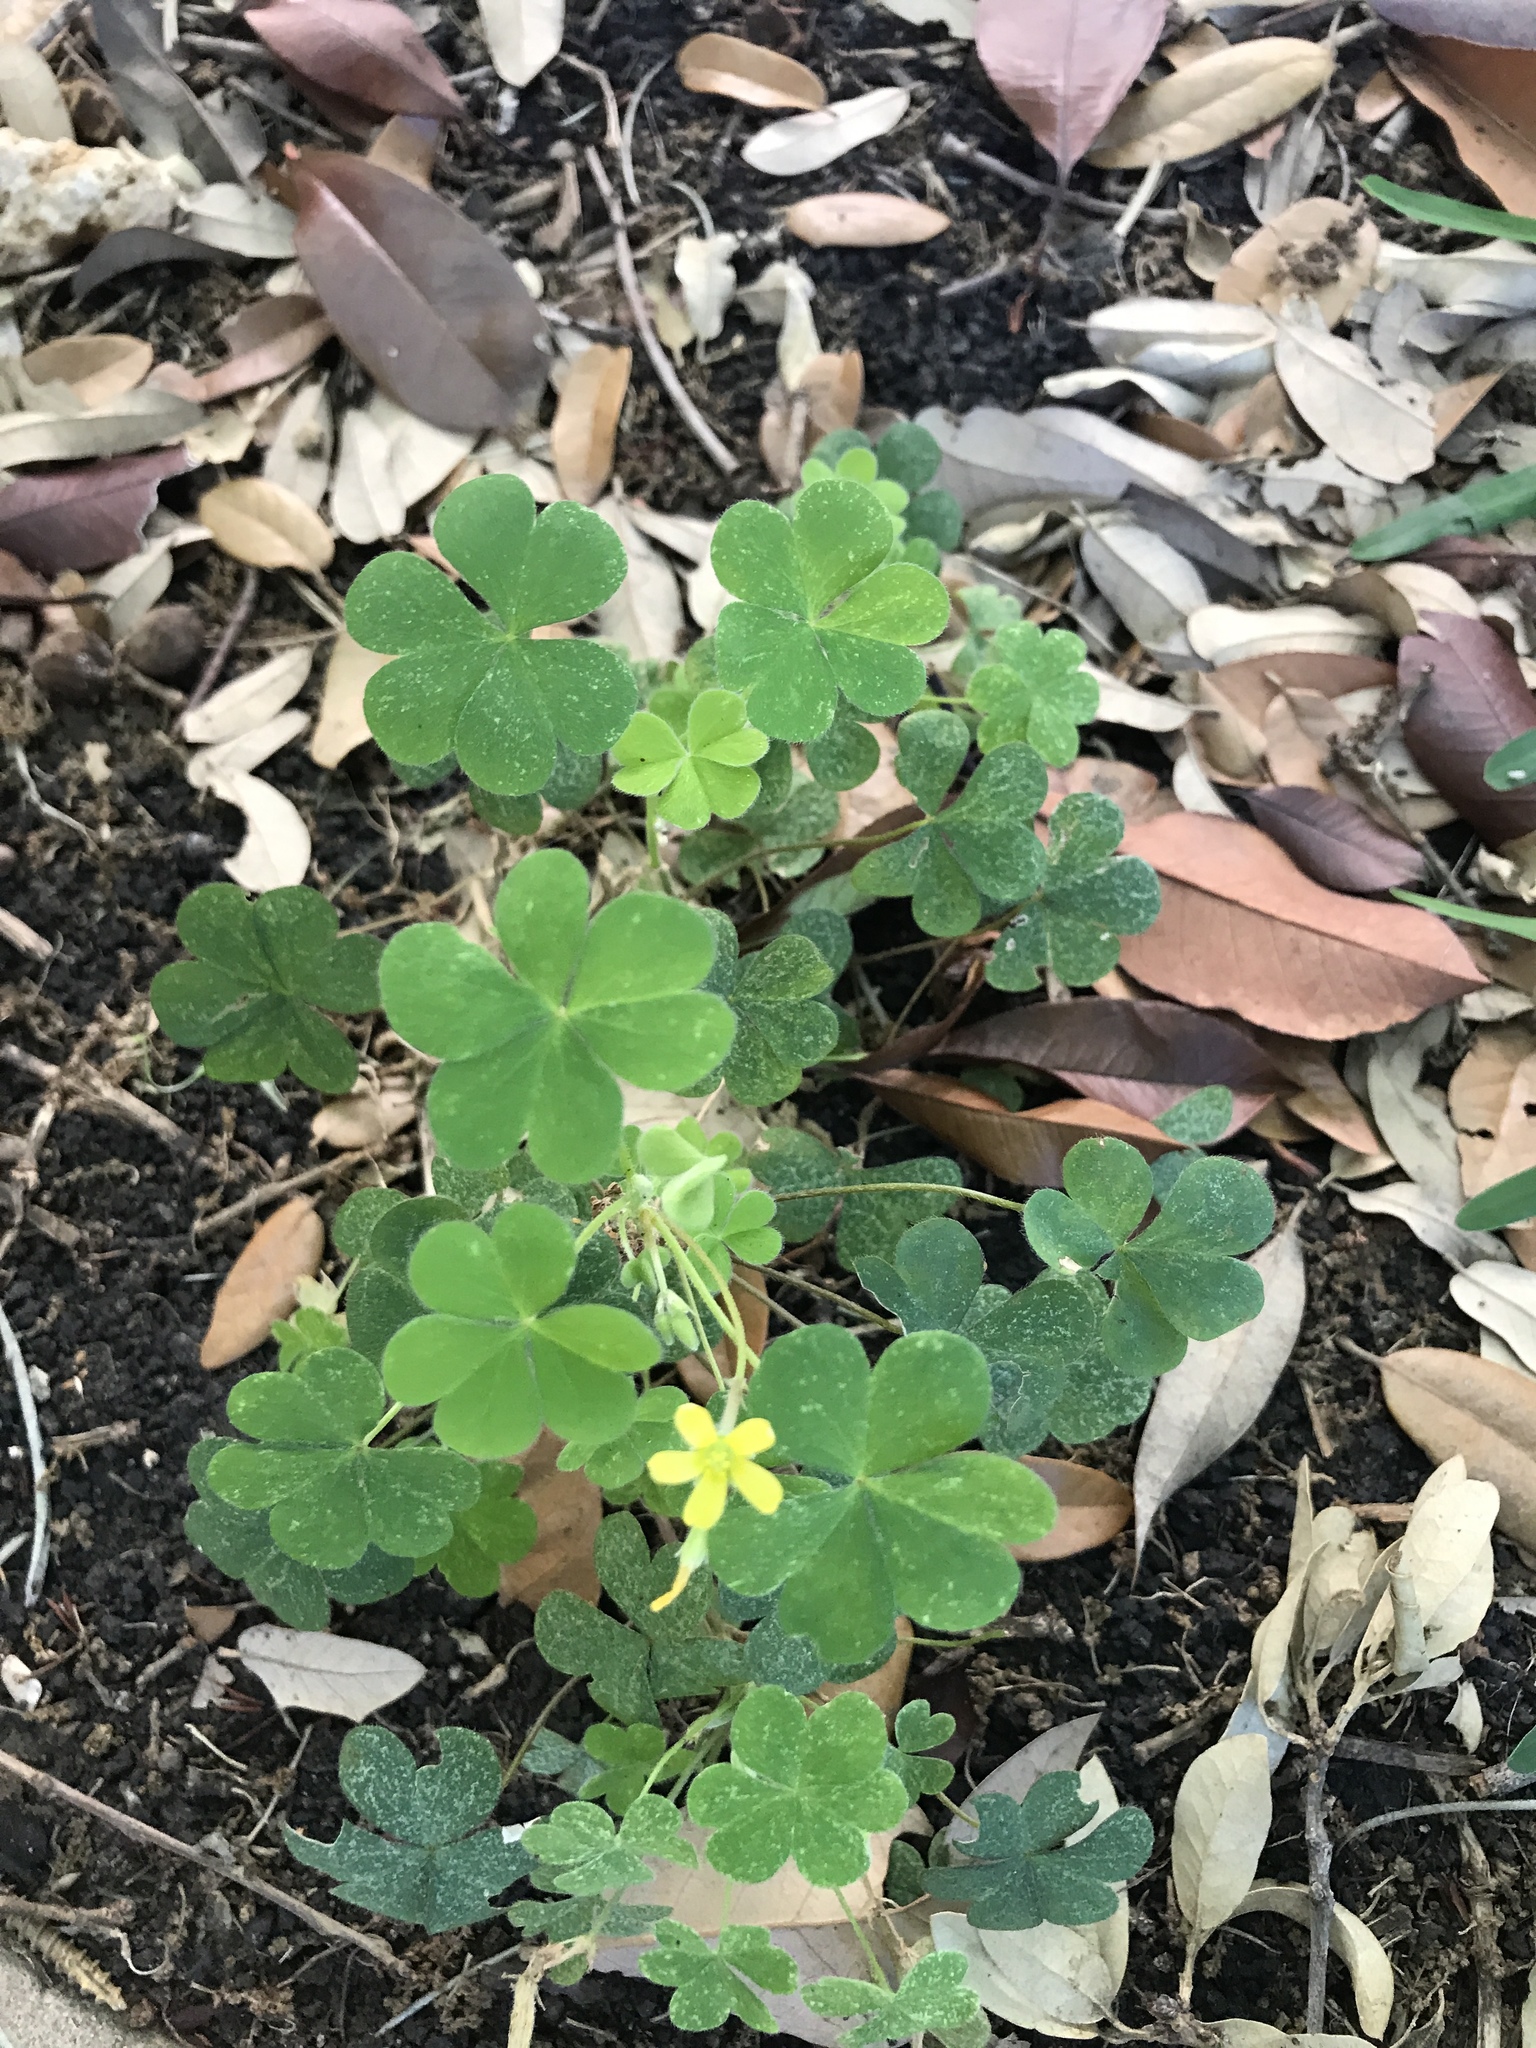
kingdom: Plantae
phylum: Tracheophyta
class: Magnoliopsida
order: Oxalidales
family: Oxalidaceae
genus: Oxalis
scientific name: Oxalis corniculata
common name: Procumbent yellow-sorrel
